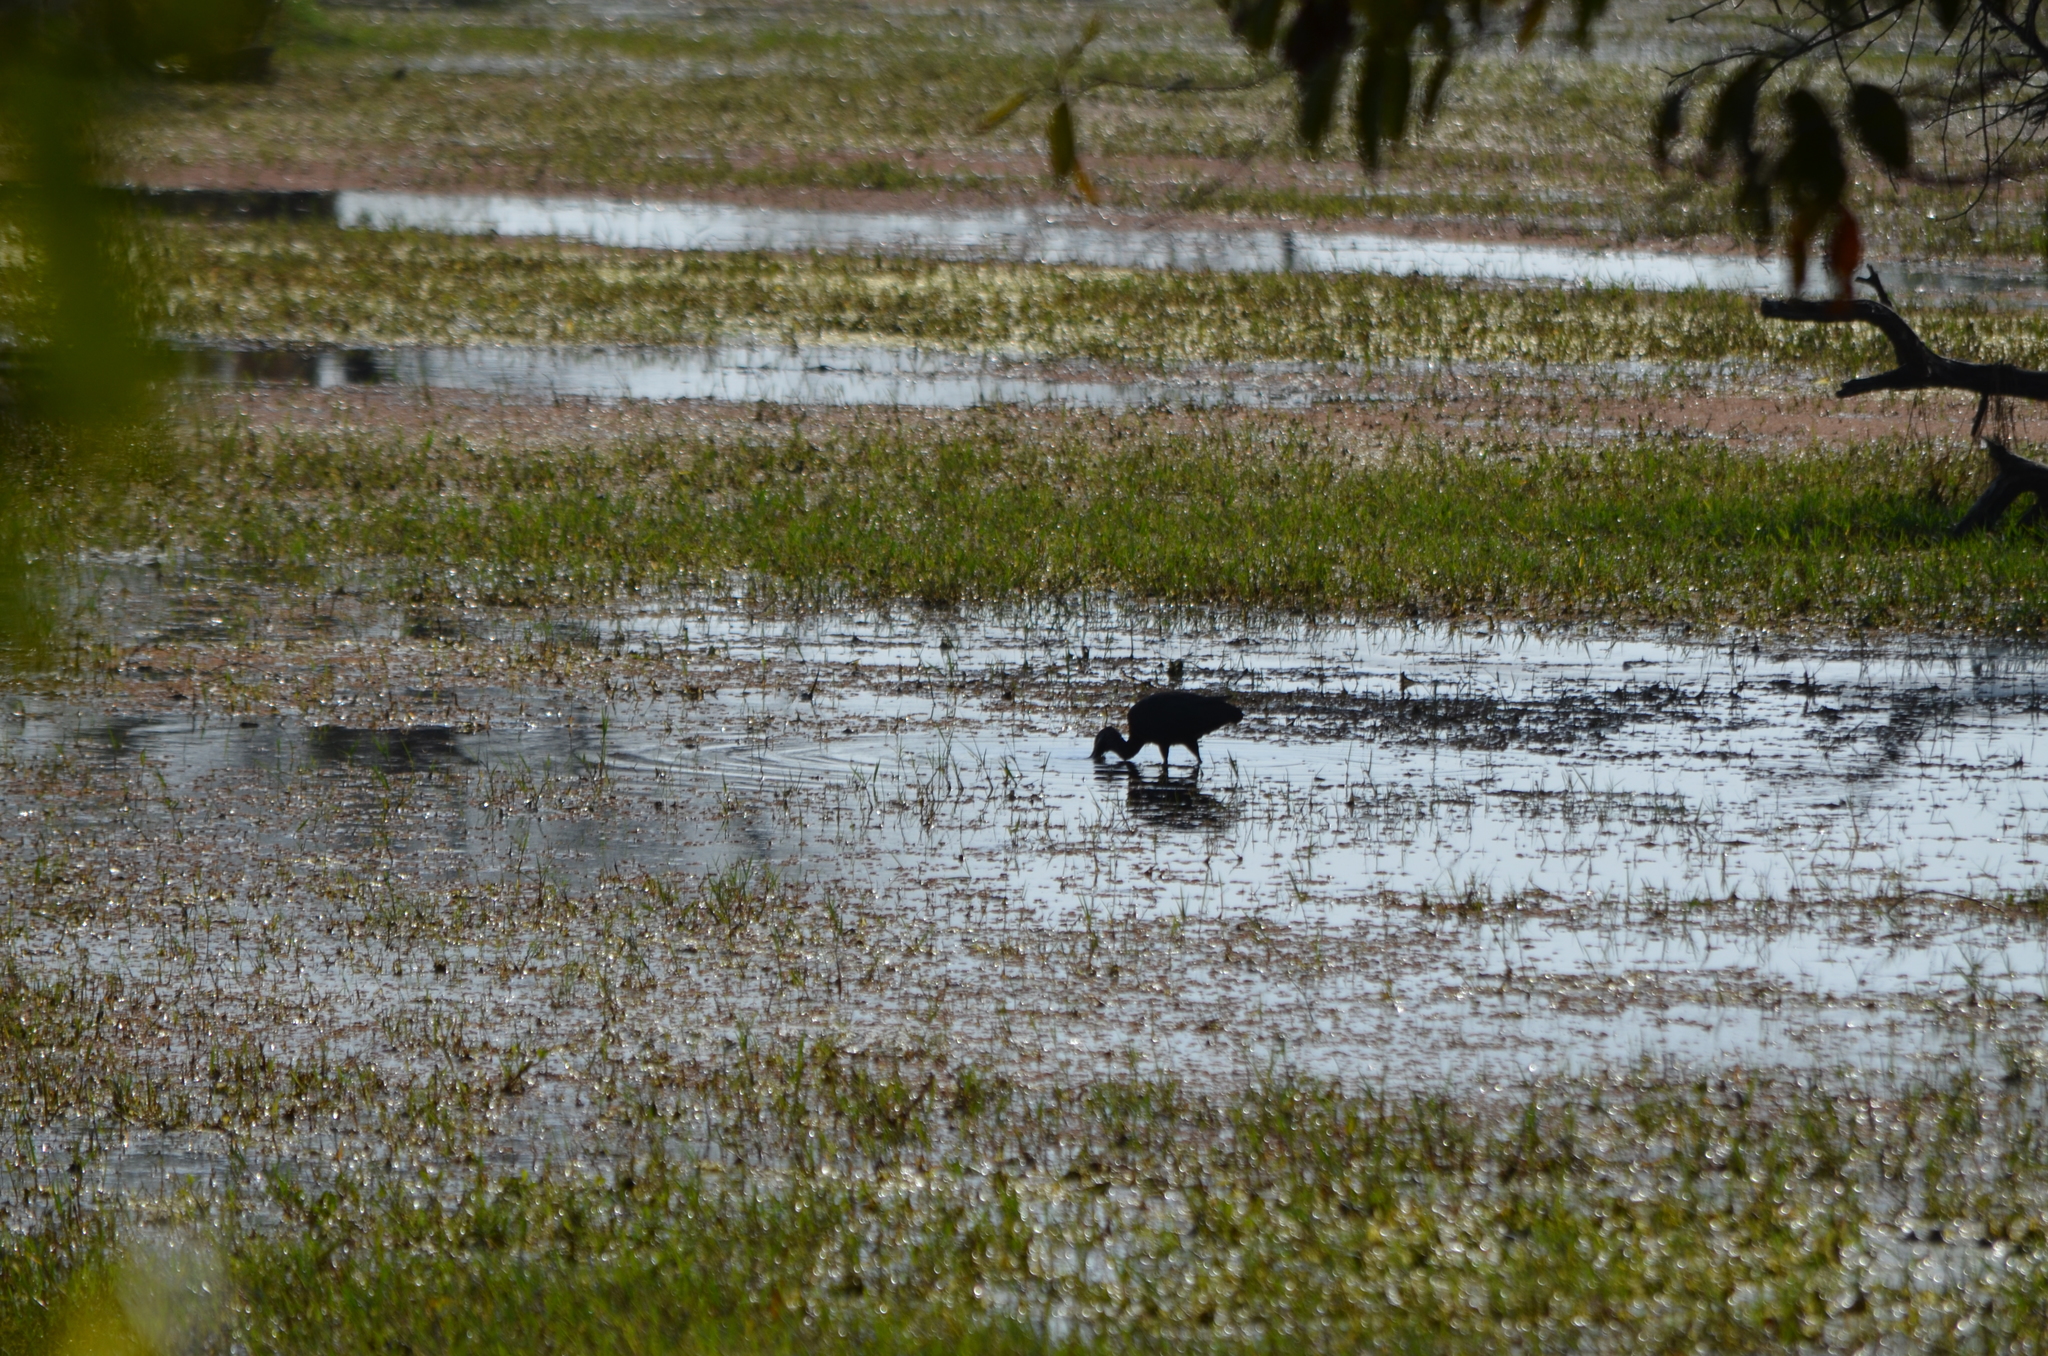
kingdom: Animalia
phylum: Chordata
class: Aves
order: Pelecaniformes
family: Threskiornithidae
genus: Plegadis
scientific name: Plegadis falcinellus
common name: Glossy ibis
